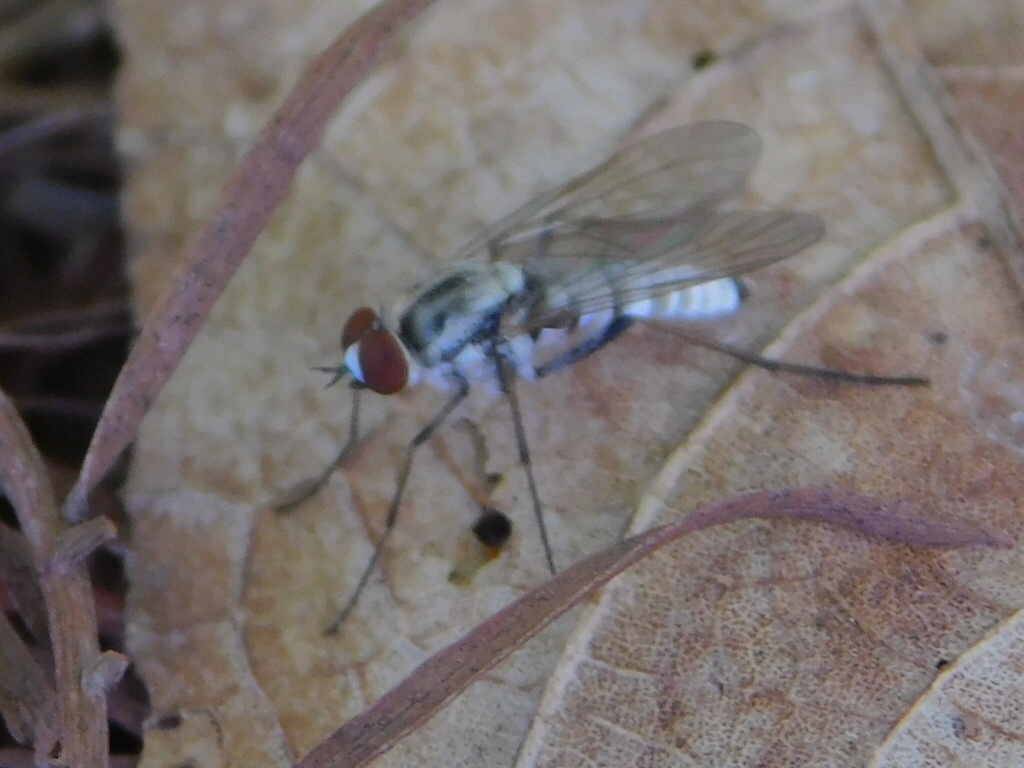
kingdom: Animalia
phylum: Arthropoda
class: Insecta
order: Diptera
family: Therevidae
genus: Penniverpa
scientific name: Penniverpa festina
